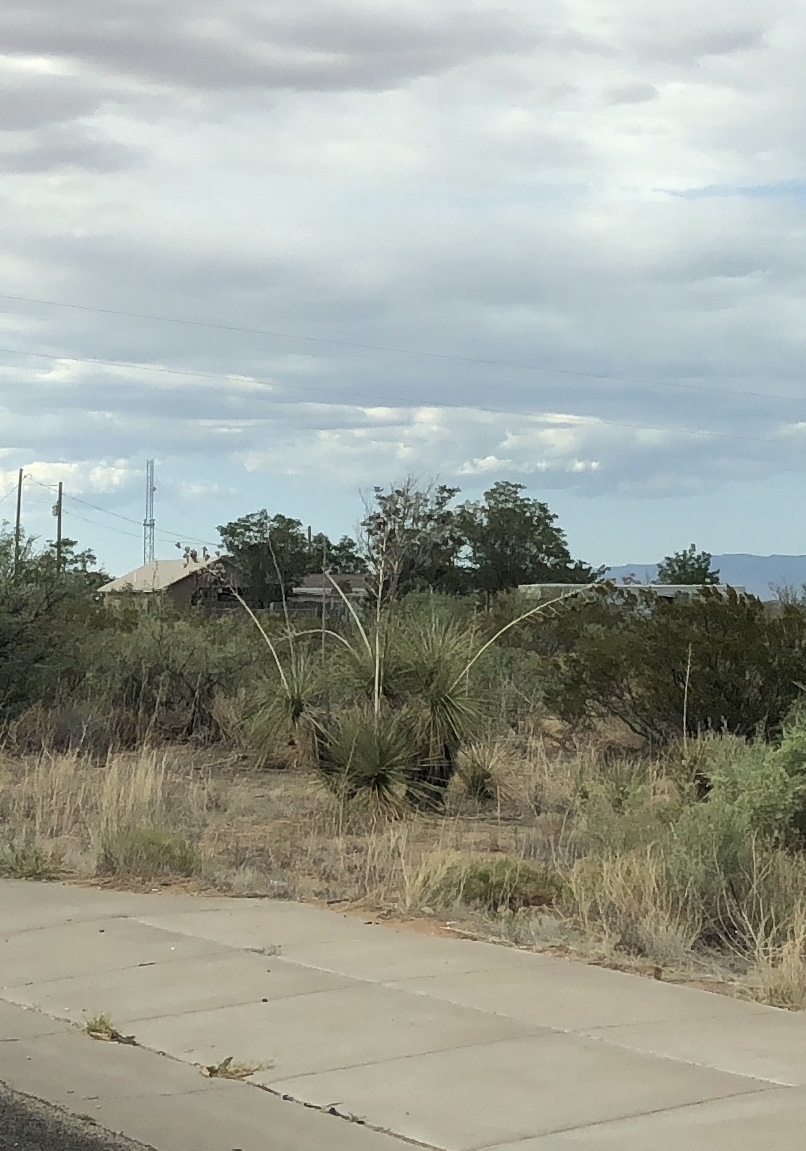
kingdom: Plantae
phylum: Tracheophyta
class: Liliopsida
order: Asparagales
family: Asparagaceae
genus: Yucca
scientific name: Yucca elata
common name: Palmella
